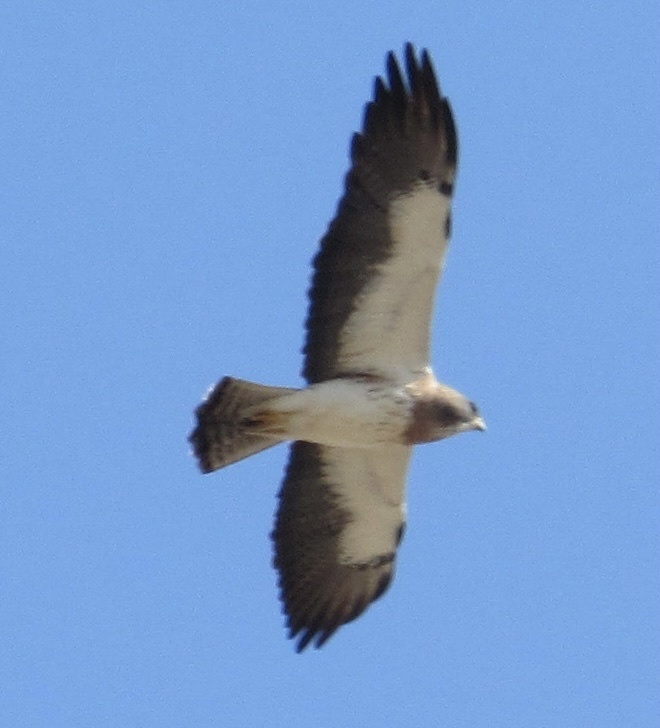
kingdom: Animalia
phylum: Chordata
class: Aves
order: Accipitriformes
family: Accipitridae
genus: Buteo
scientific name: Buteo swainsoni
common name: Swainson's hawk
